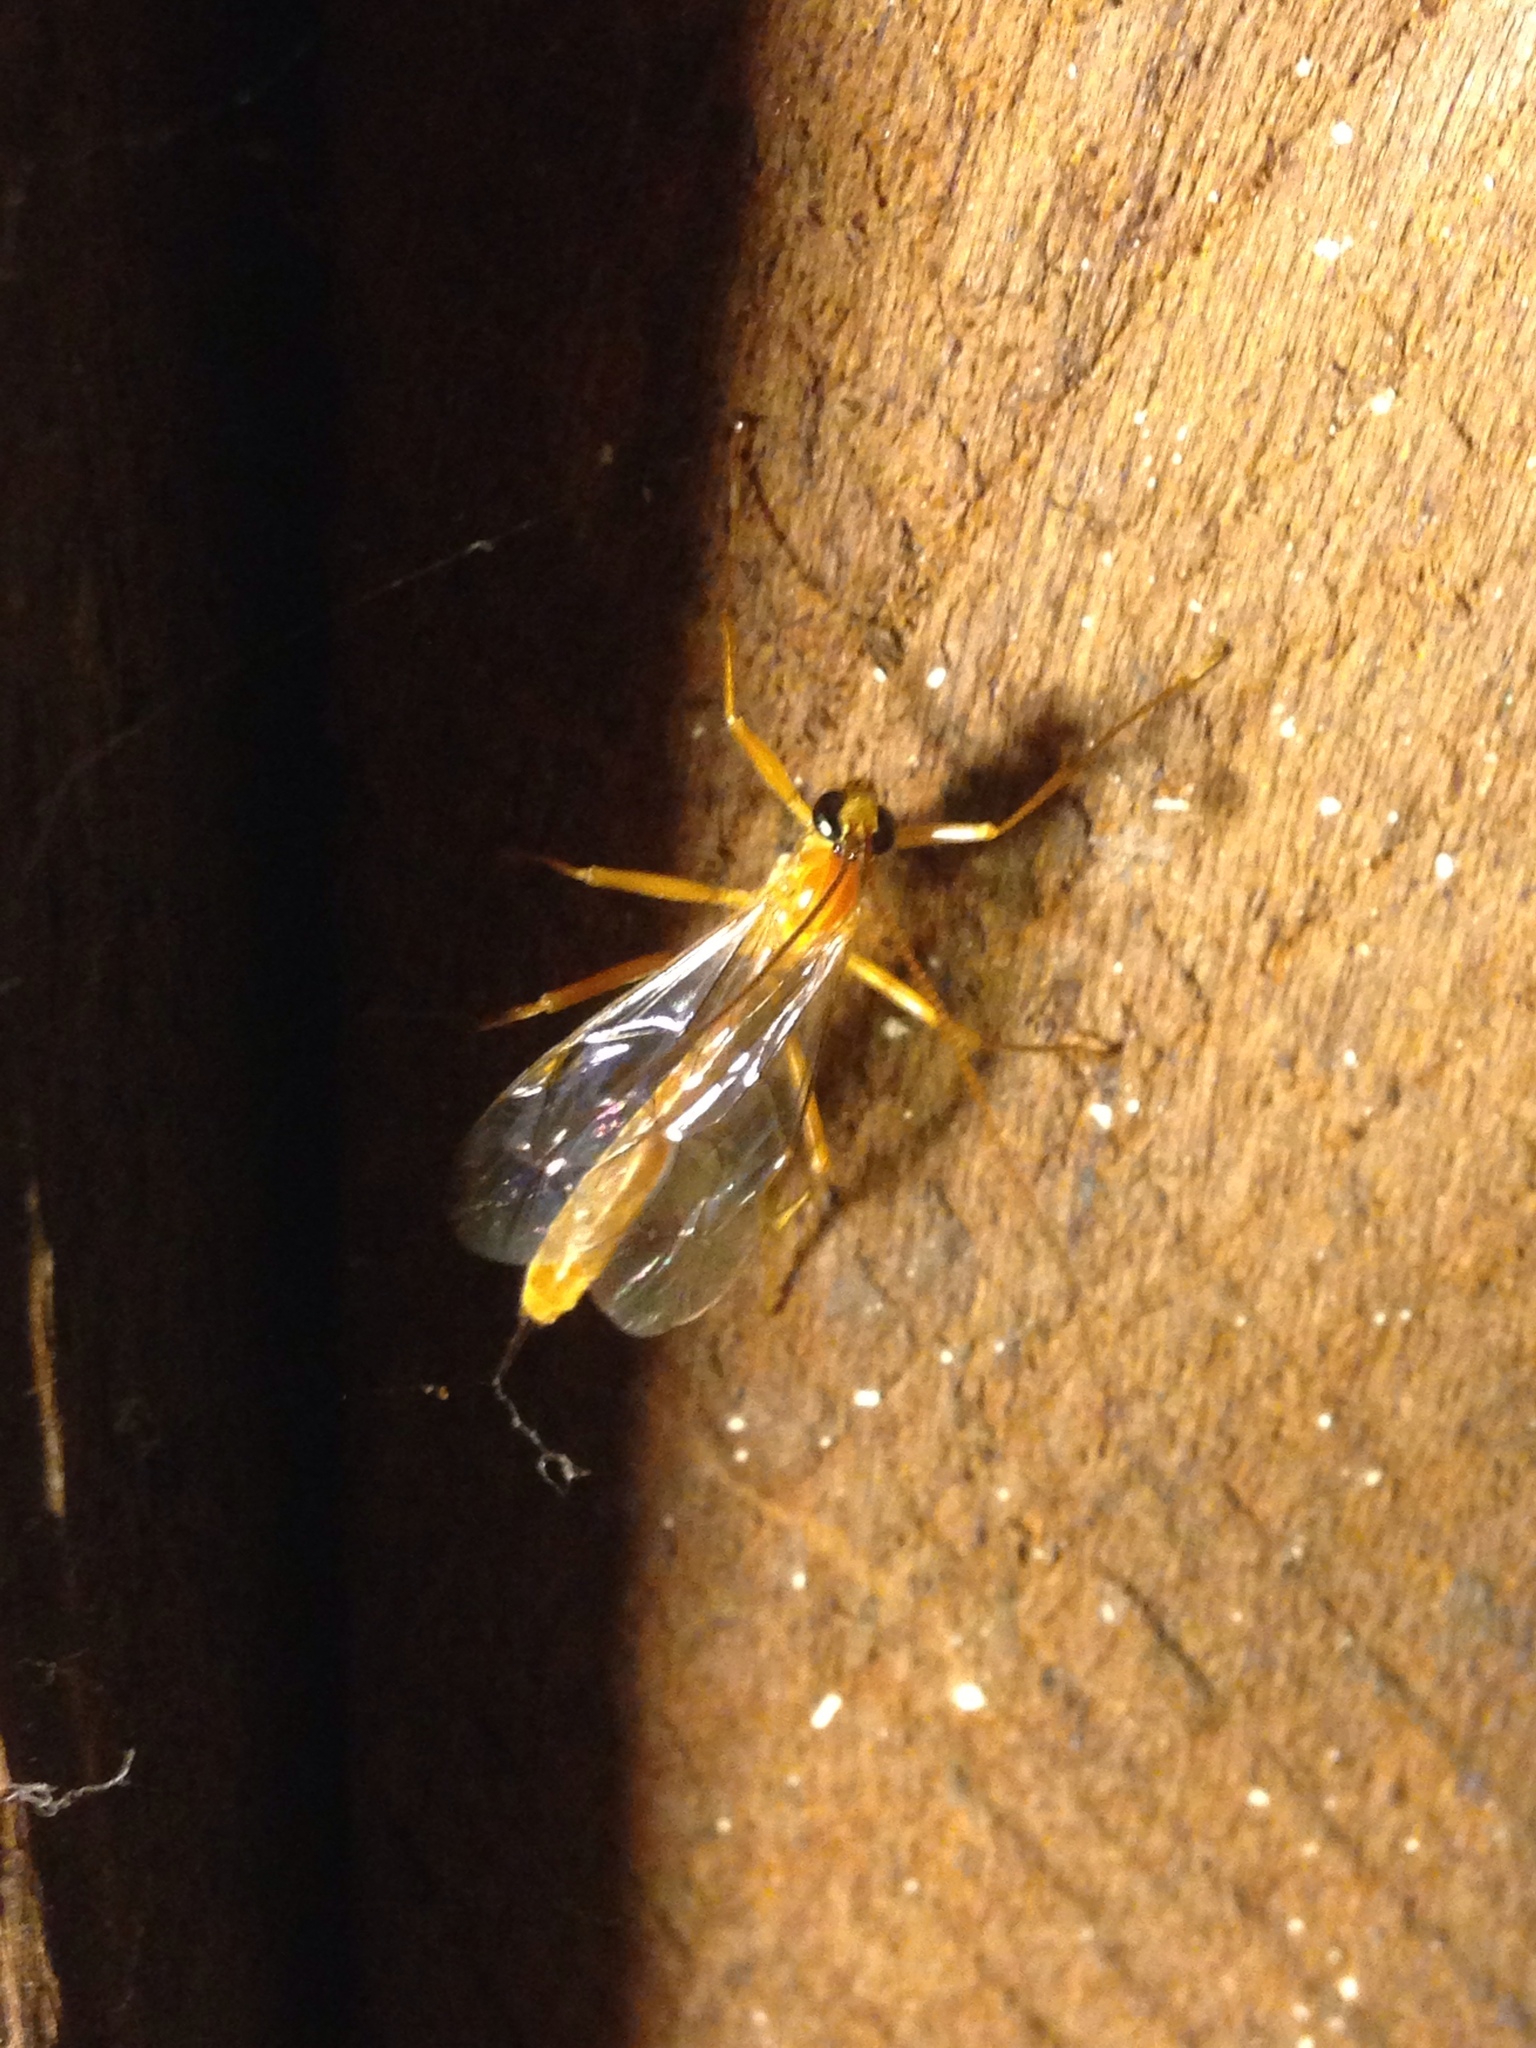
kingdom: Animalia
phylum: Arthropoda
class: Insecta
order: Hymenoptera
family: Ichneumonidae
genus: Netelia
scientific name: Netelia
